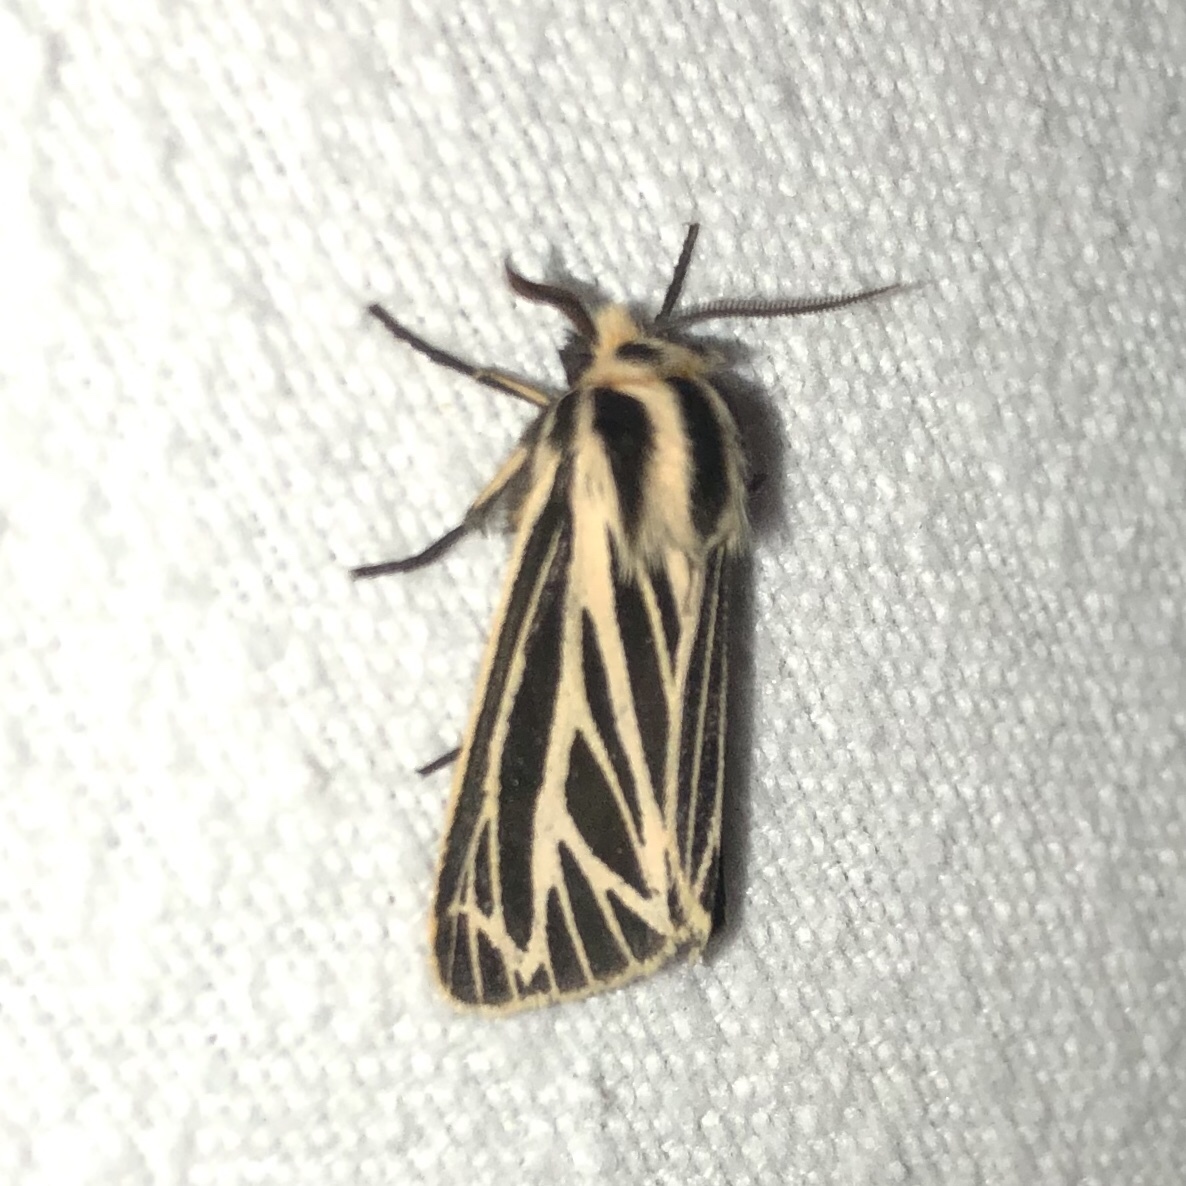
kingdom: Animalia
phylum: Arthropoda
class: Insecta
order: Lepidoptera
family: Erebidae
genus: Grammia
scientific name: Grammia virguncula
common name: Little tiger moth
